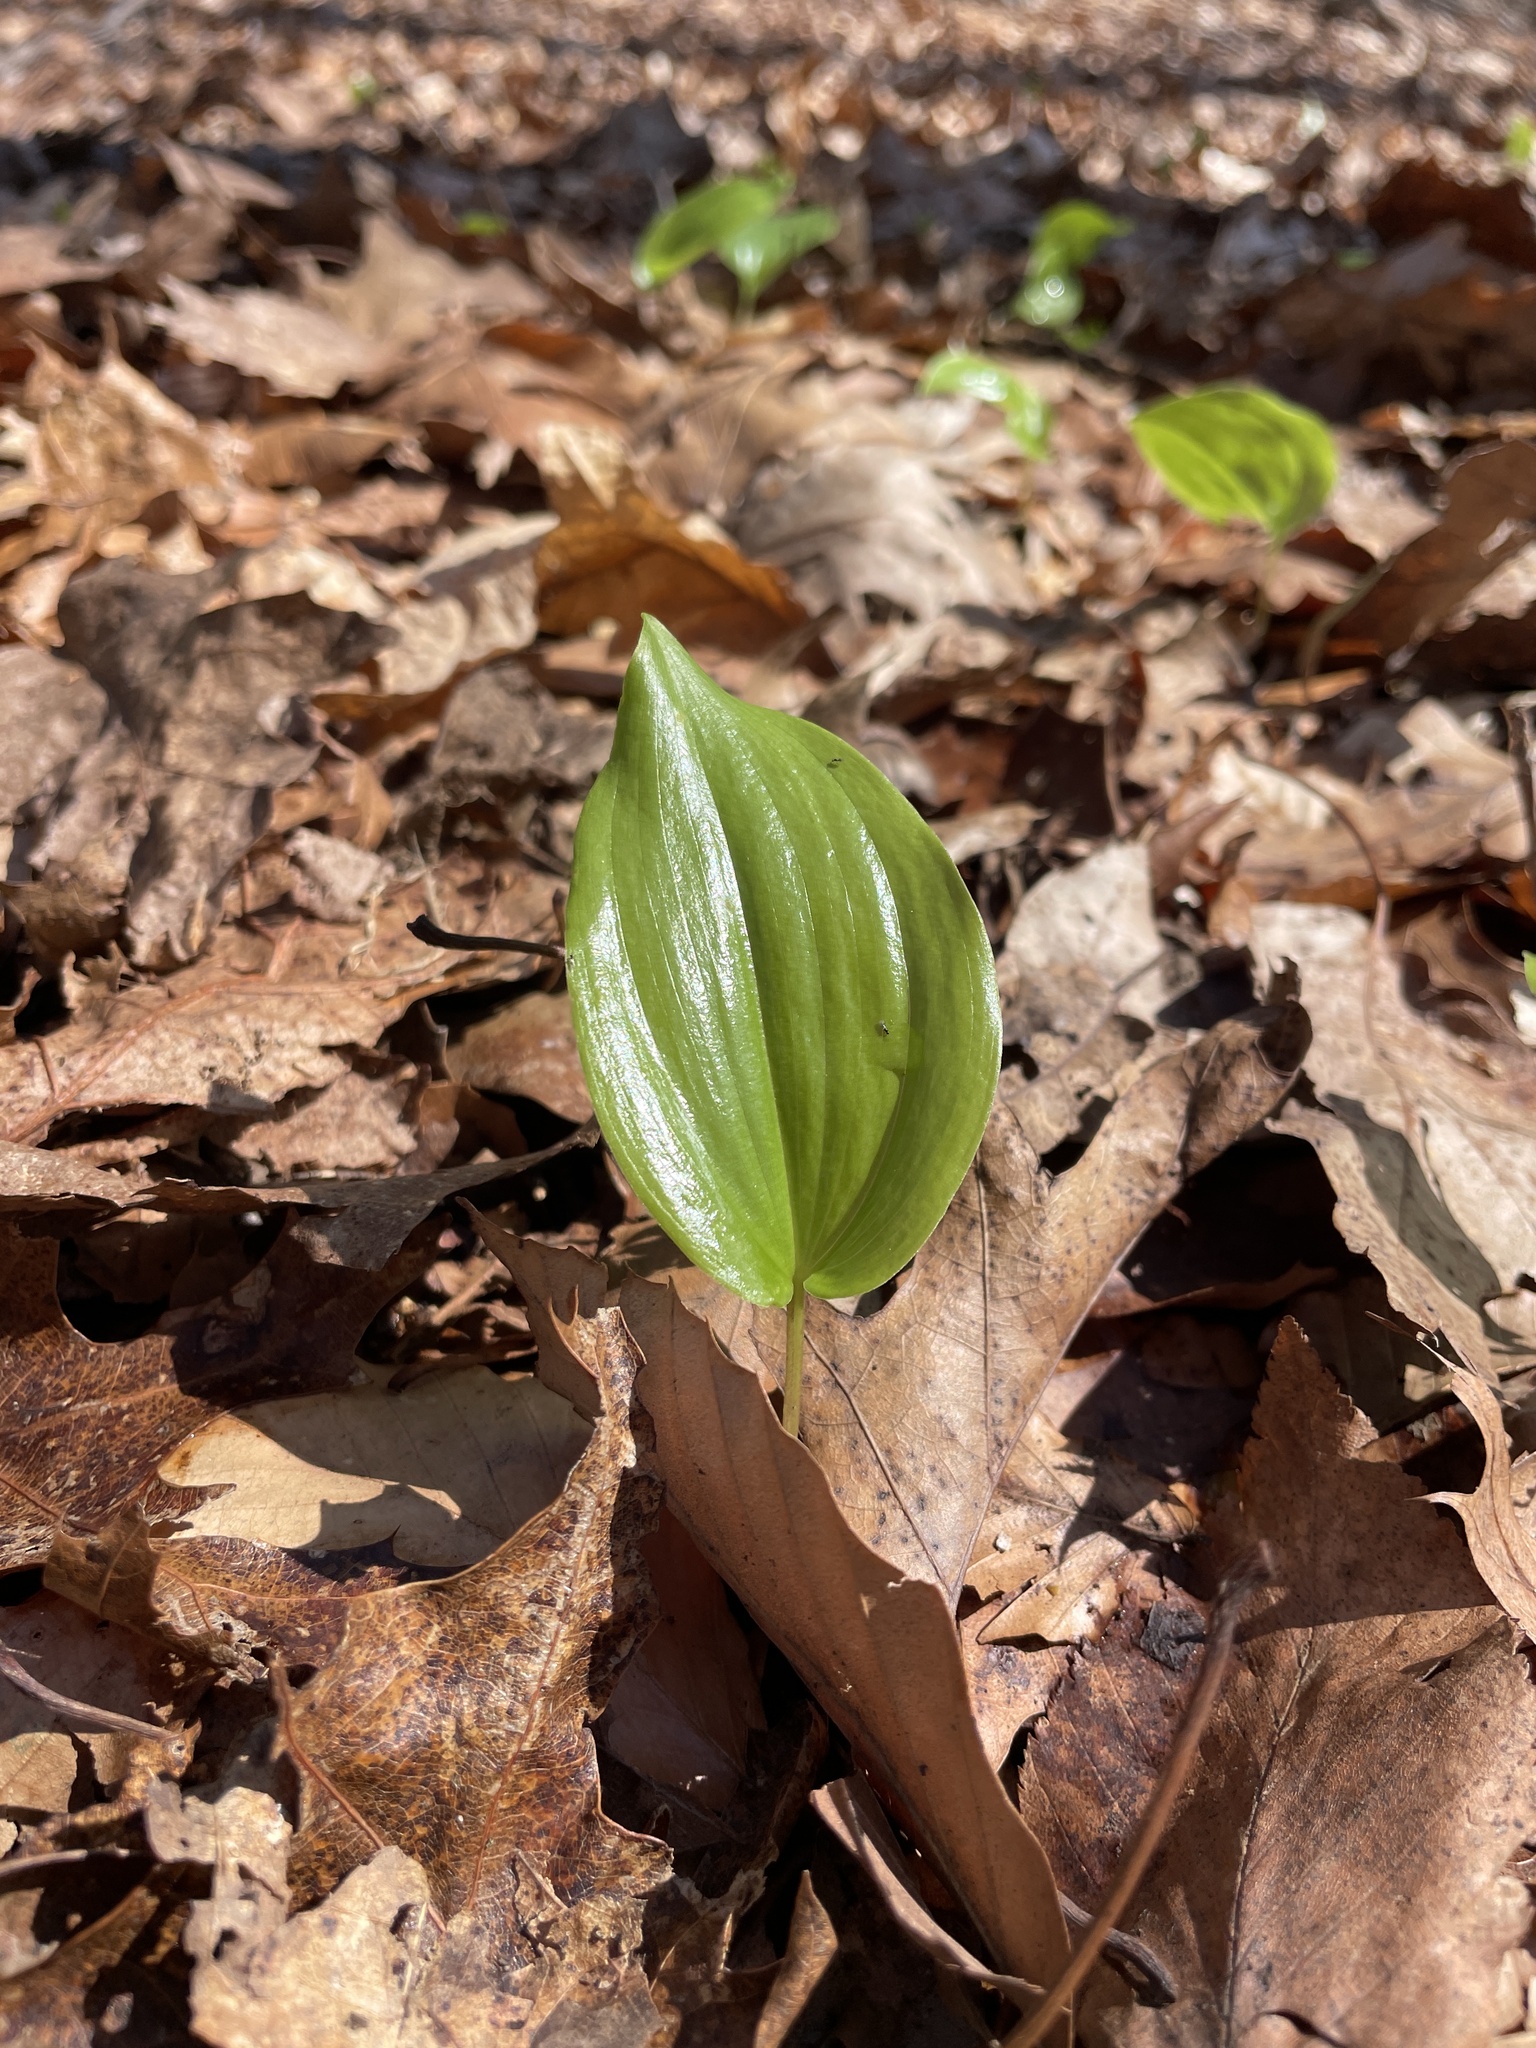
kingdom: Plantae
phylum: Tracheophyta
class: Liliopsida
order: Asparagales
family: Asparagaceae
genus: Maianthemum
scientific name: Maianthemum canadense
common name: False lily-of-the-valley
